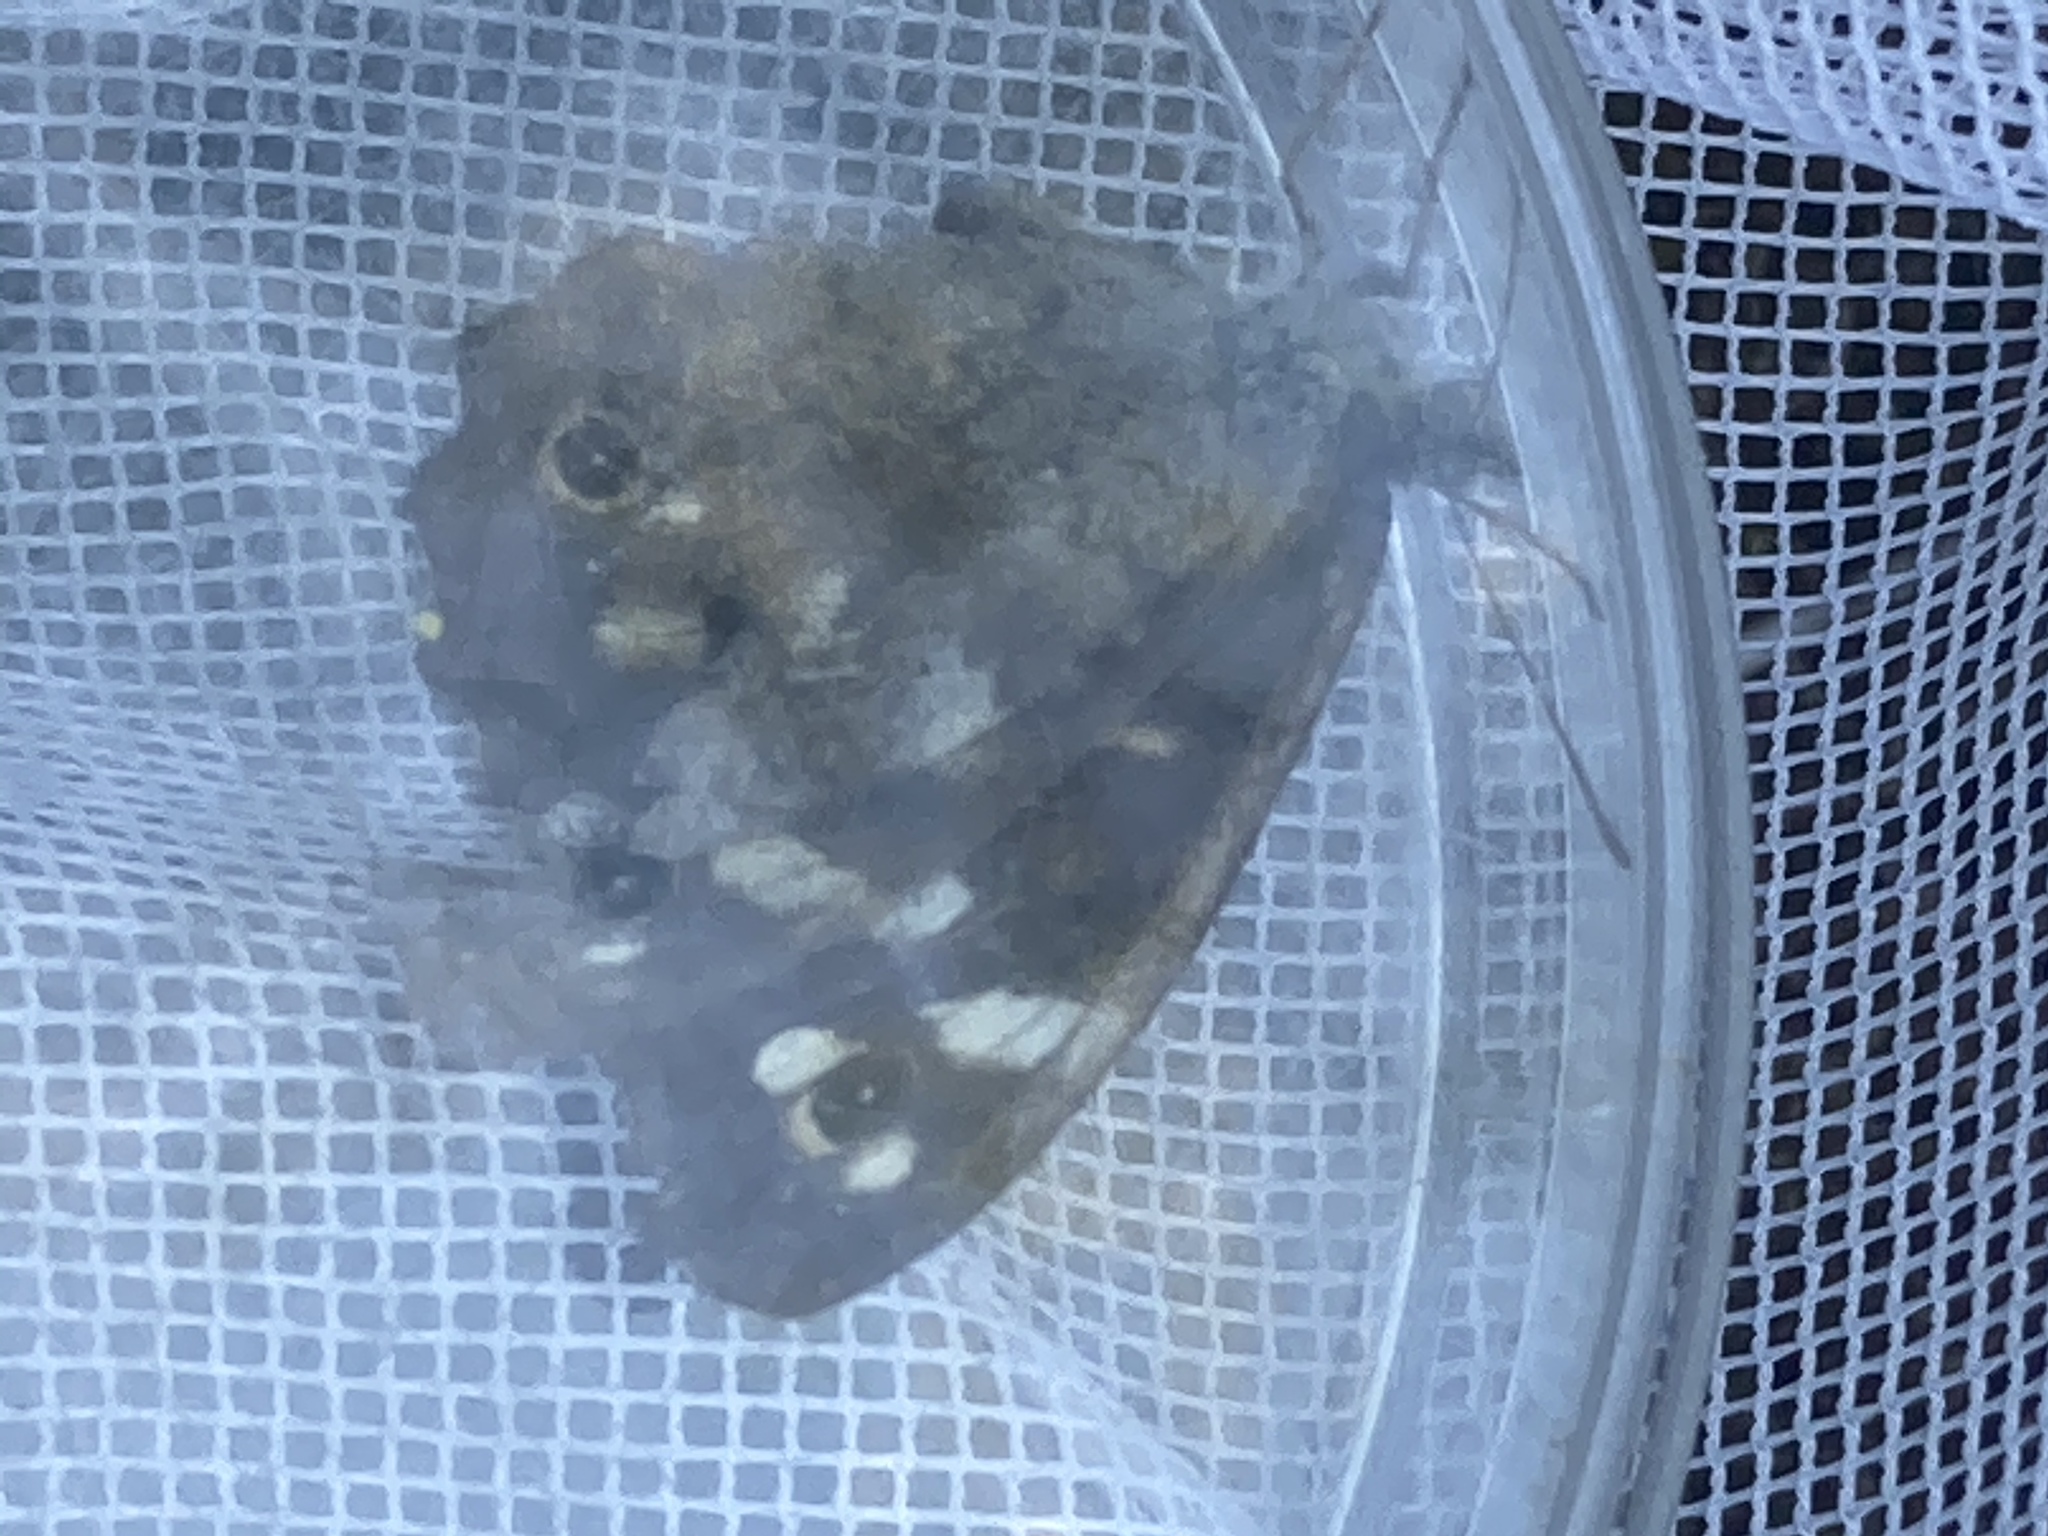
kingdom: Animalia
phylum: Arthropoda
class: Insecta
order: Lepidoptera
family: Nymphalidae
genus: Pararge
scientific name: Pararge aegeria
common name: Speckled wood
